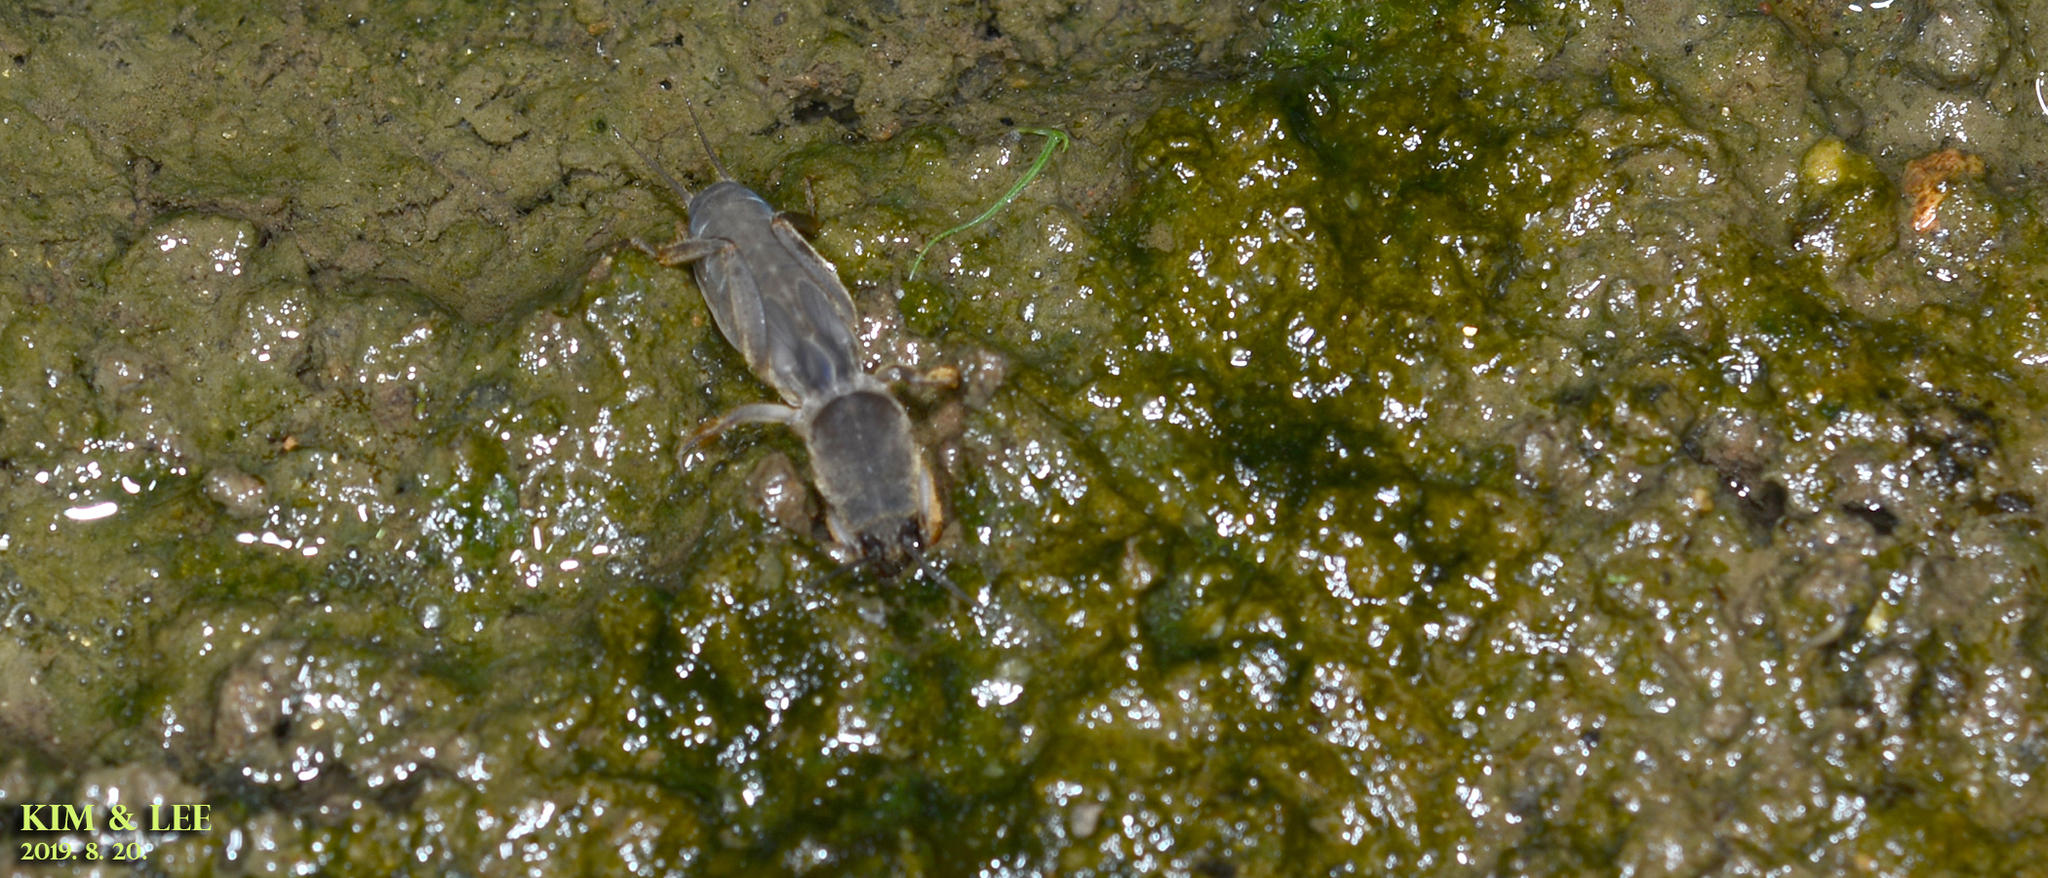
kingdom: Animalia
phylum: Arthropoda
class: Insecta
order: Orthoptera
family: Gryllotalpidae
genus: Gryllotalpa
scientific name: Gryllotalpa orientalis
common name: Grasshopper
